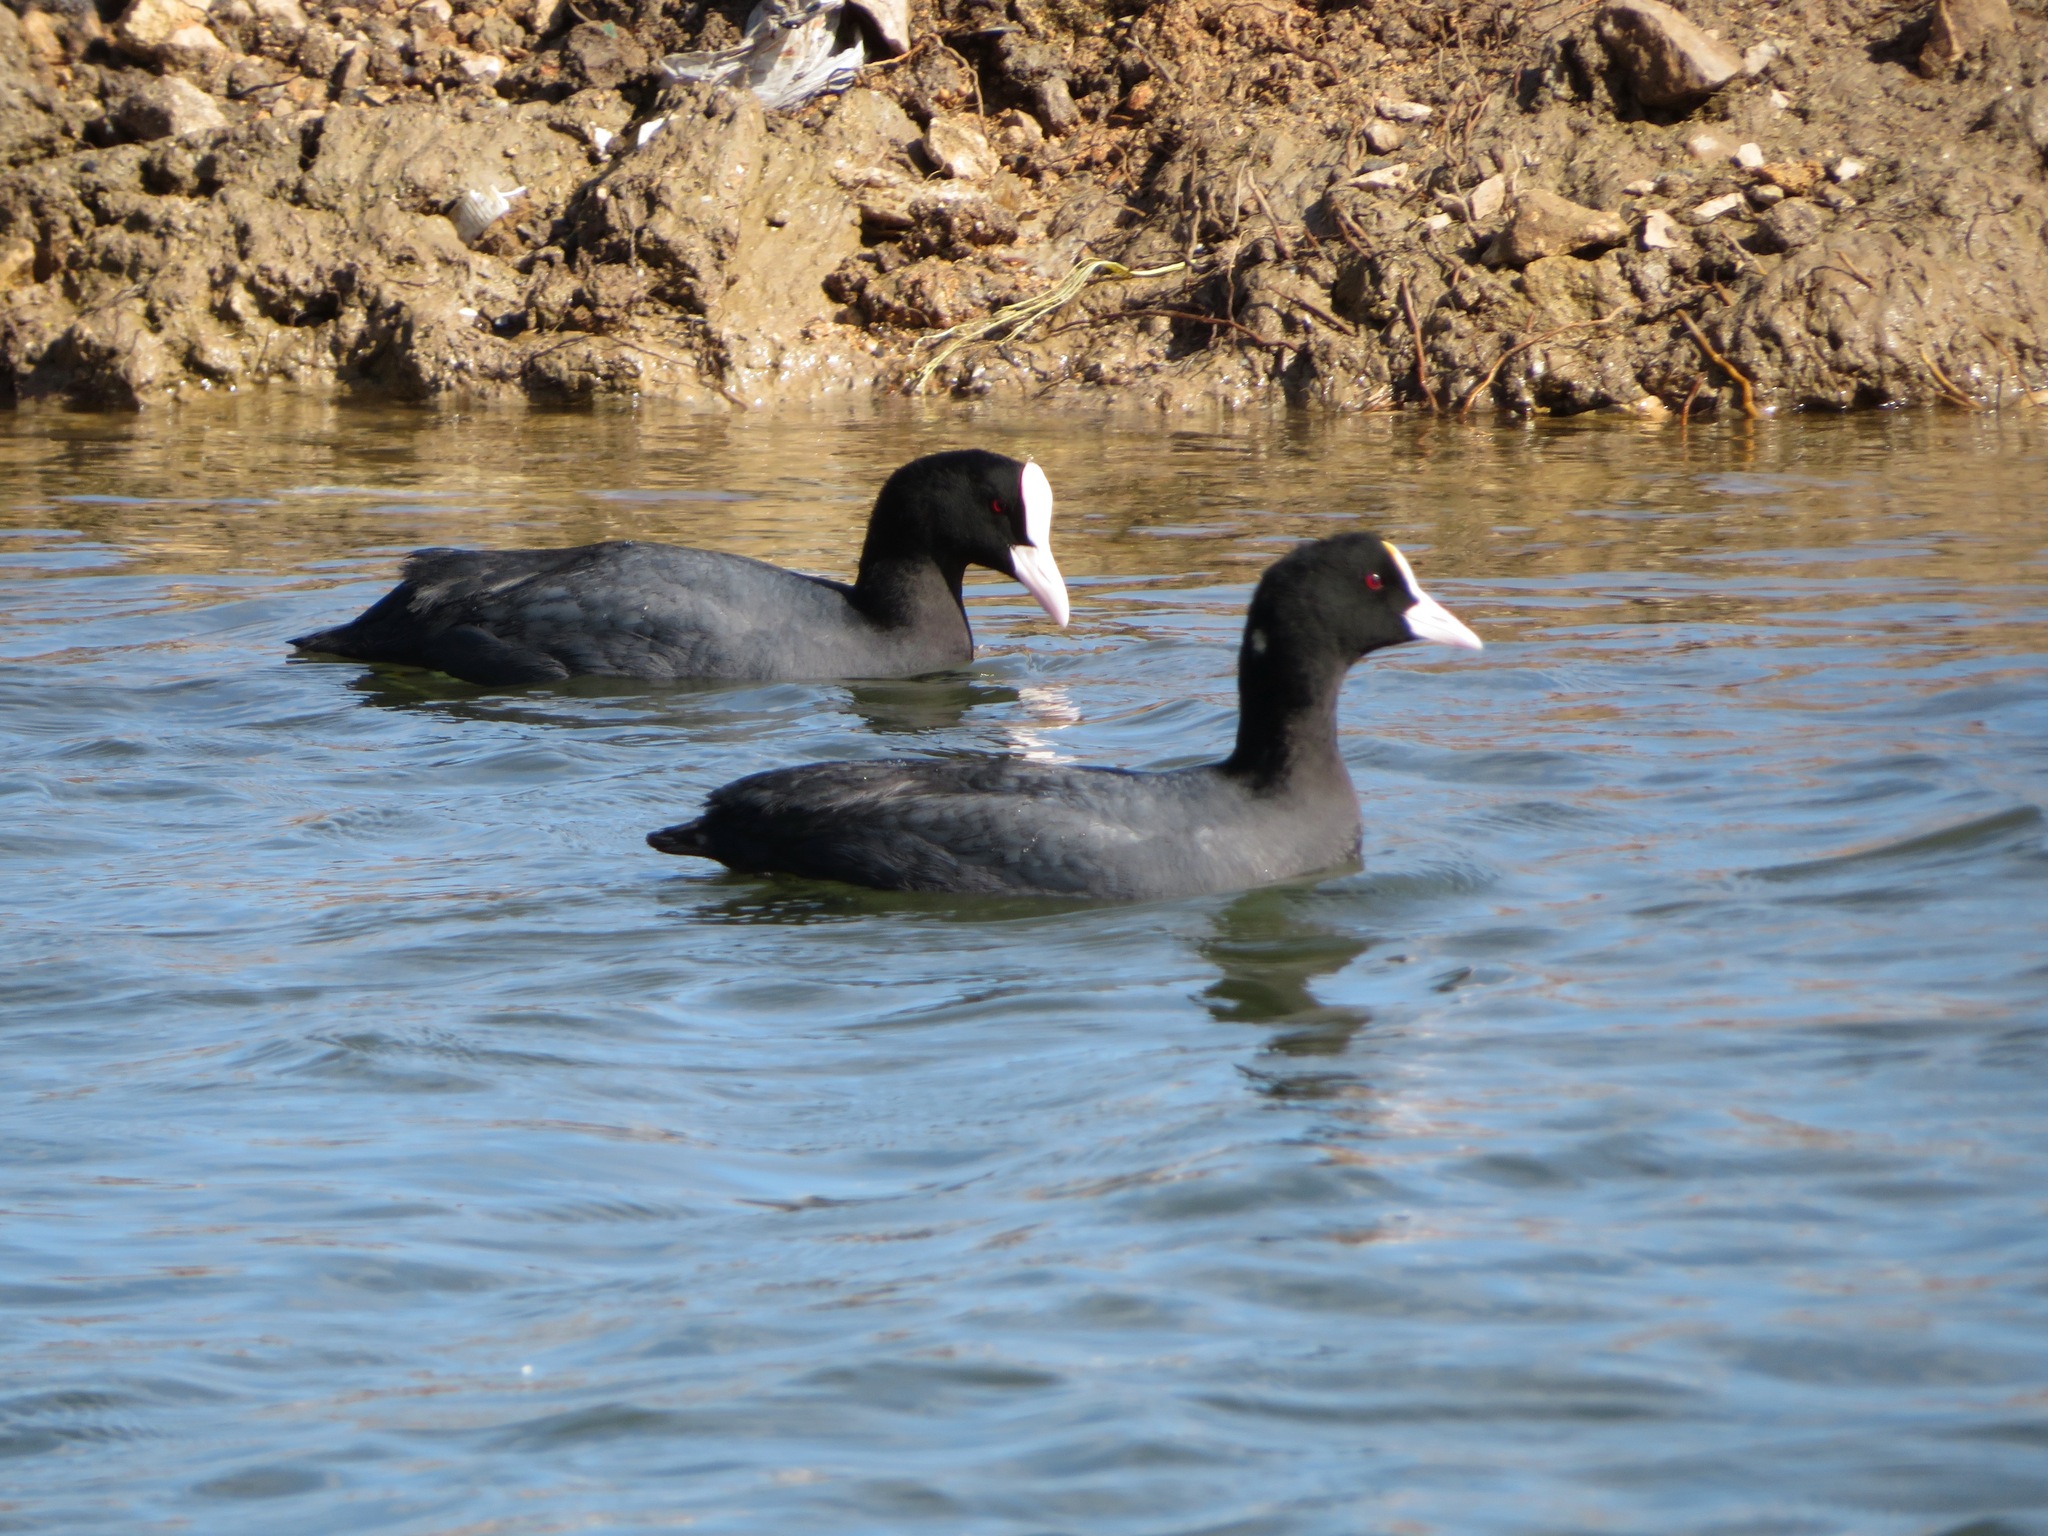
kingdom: Animalia
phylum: Chordata
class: Aves
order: Gruiformes
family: Rallidae
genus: Fulica
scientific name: Fulica atra
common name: Eurasian coot
